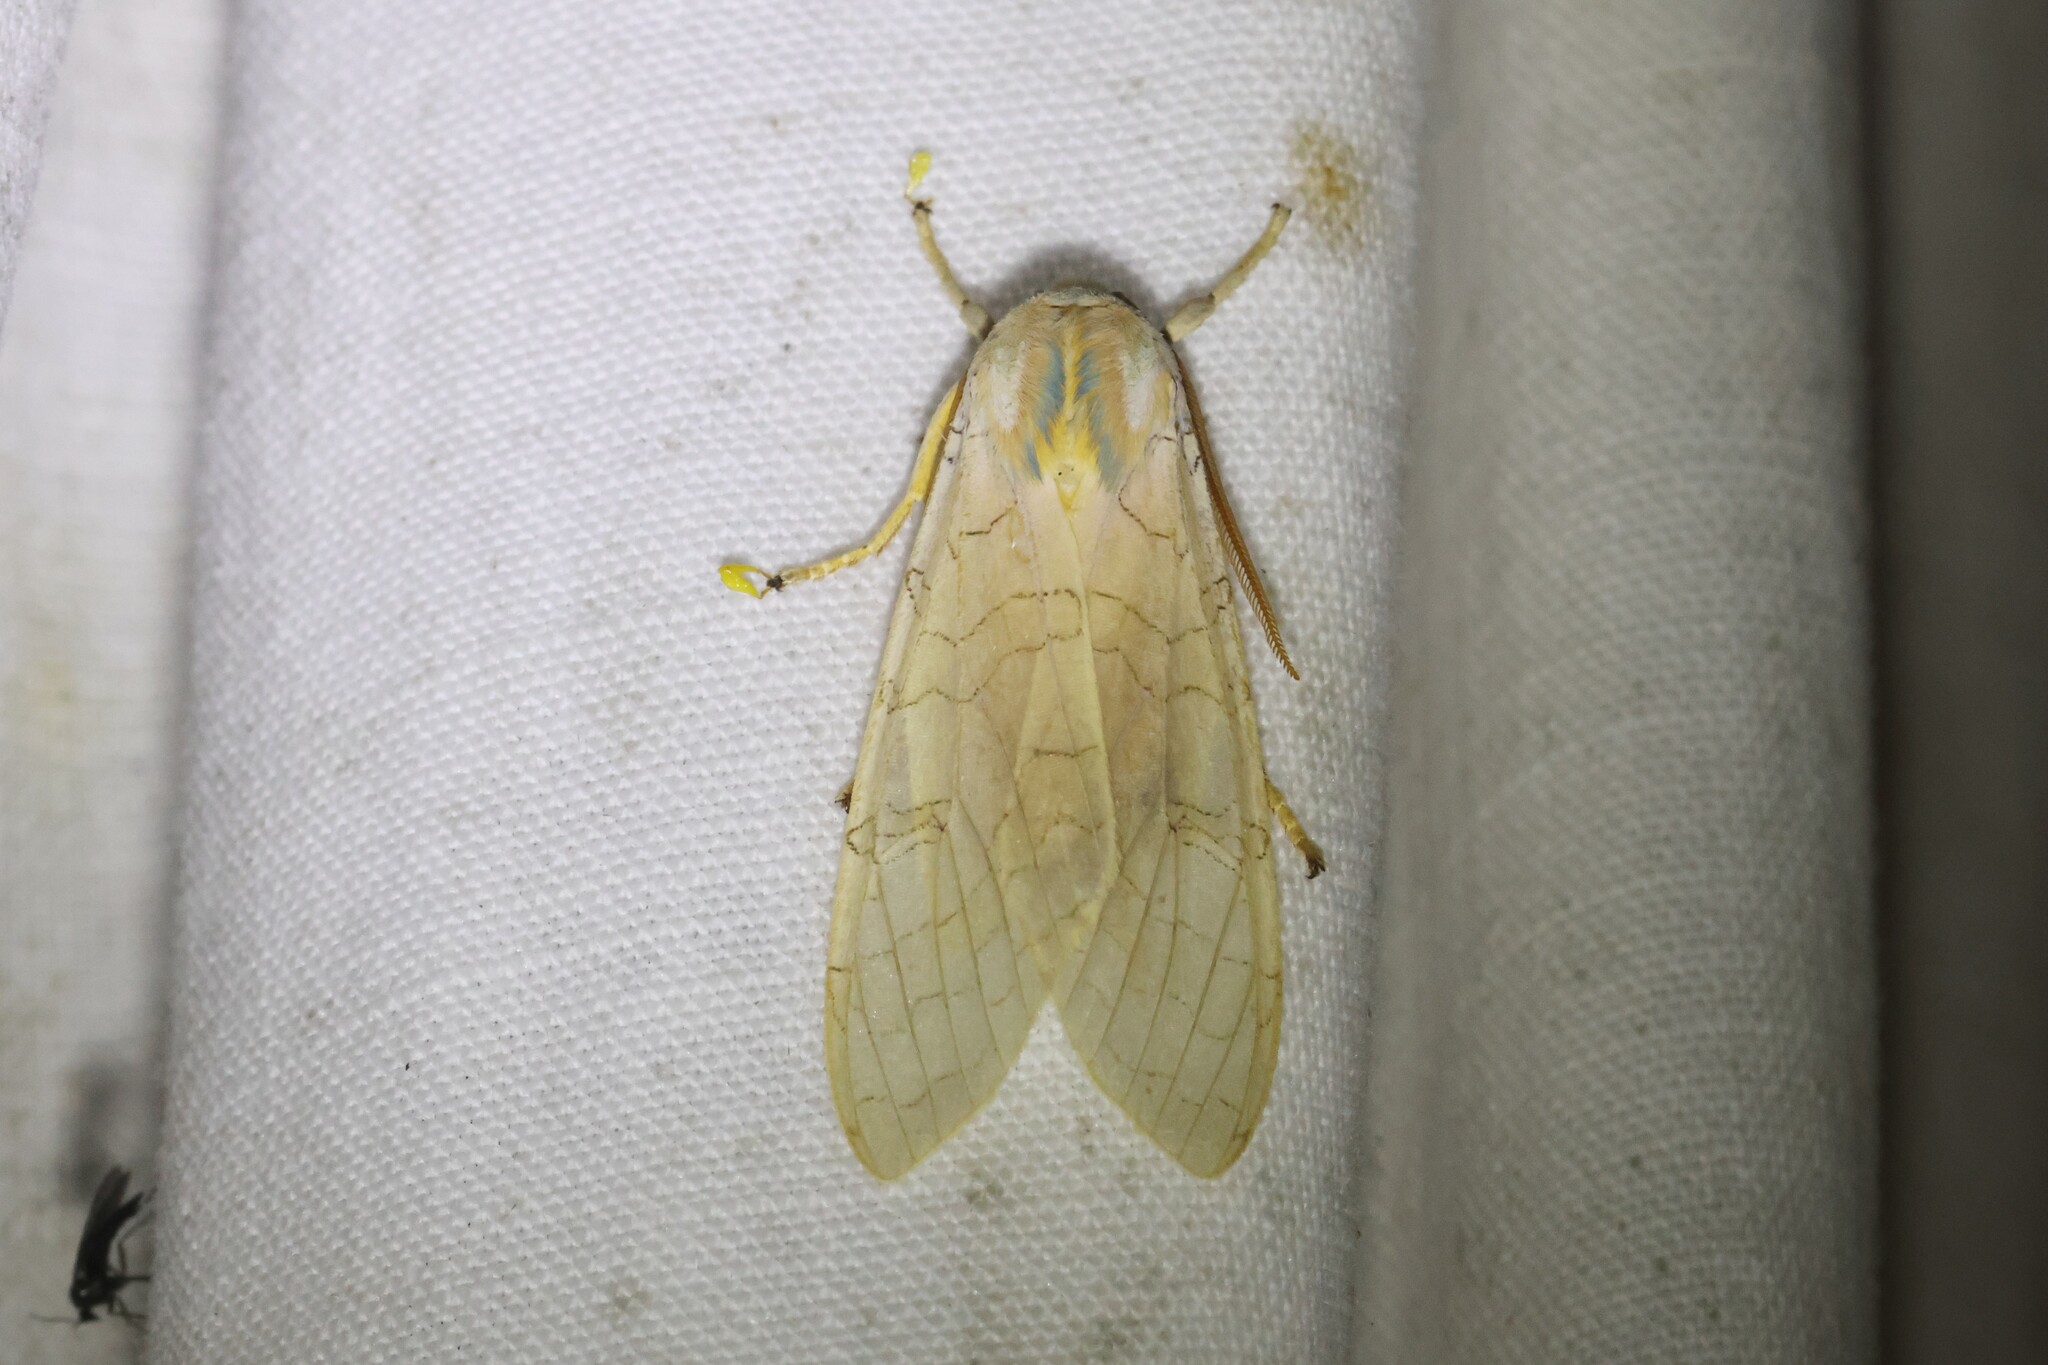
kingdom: Animalia
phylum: Arthropoda
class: Insecta
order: Lepidoptera
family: Erebidae
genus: Halysidota
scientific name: Halysidota tessellaris
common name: Banded tussock moth
